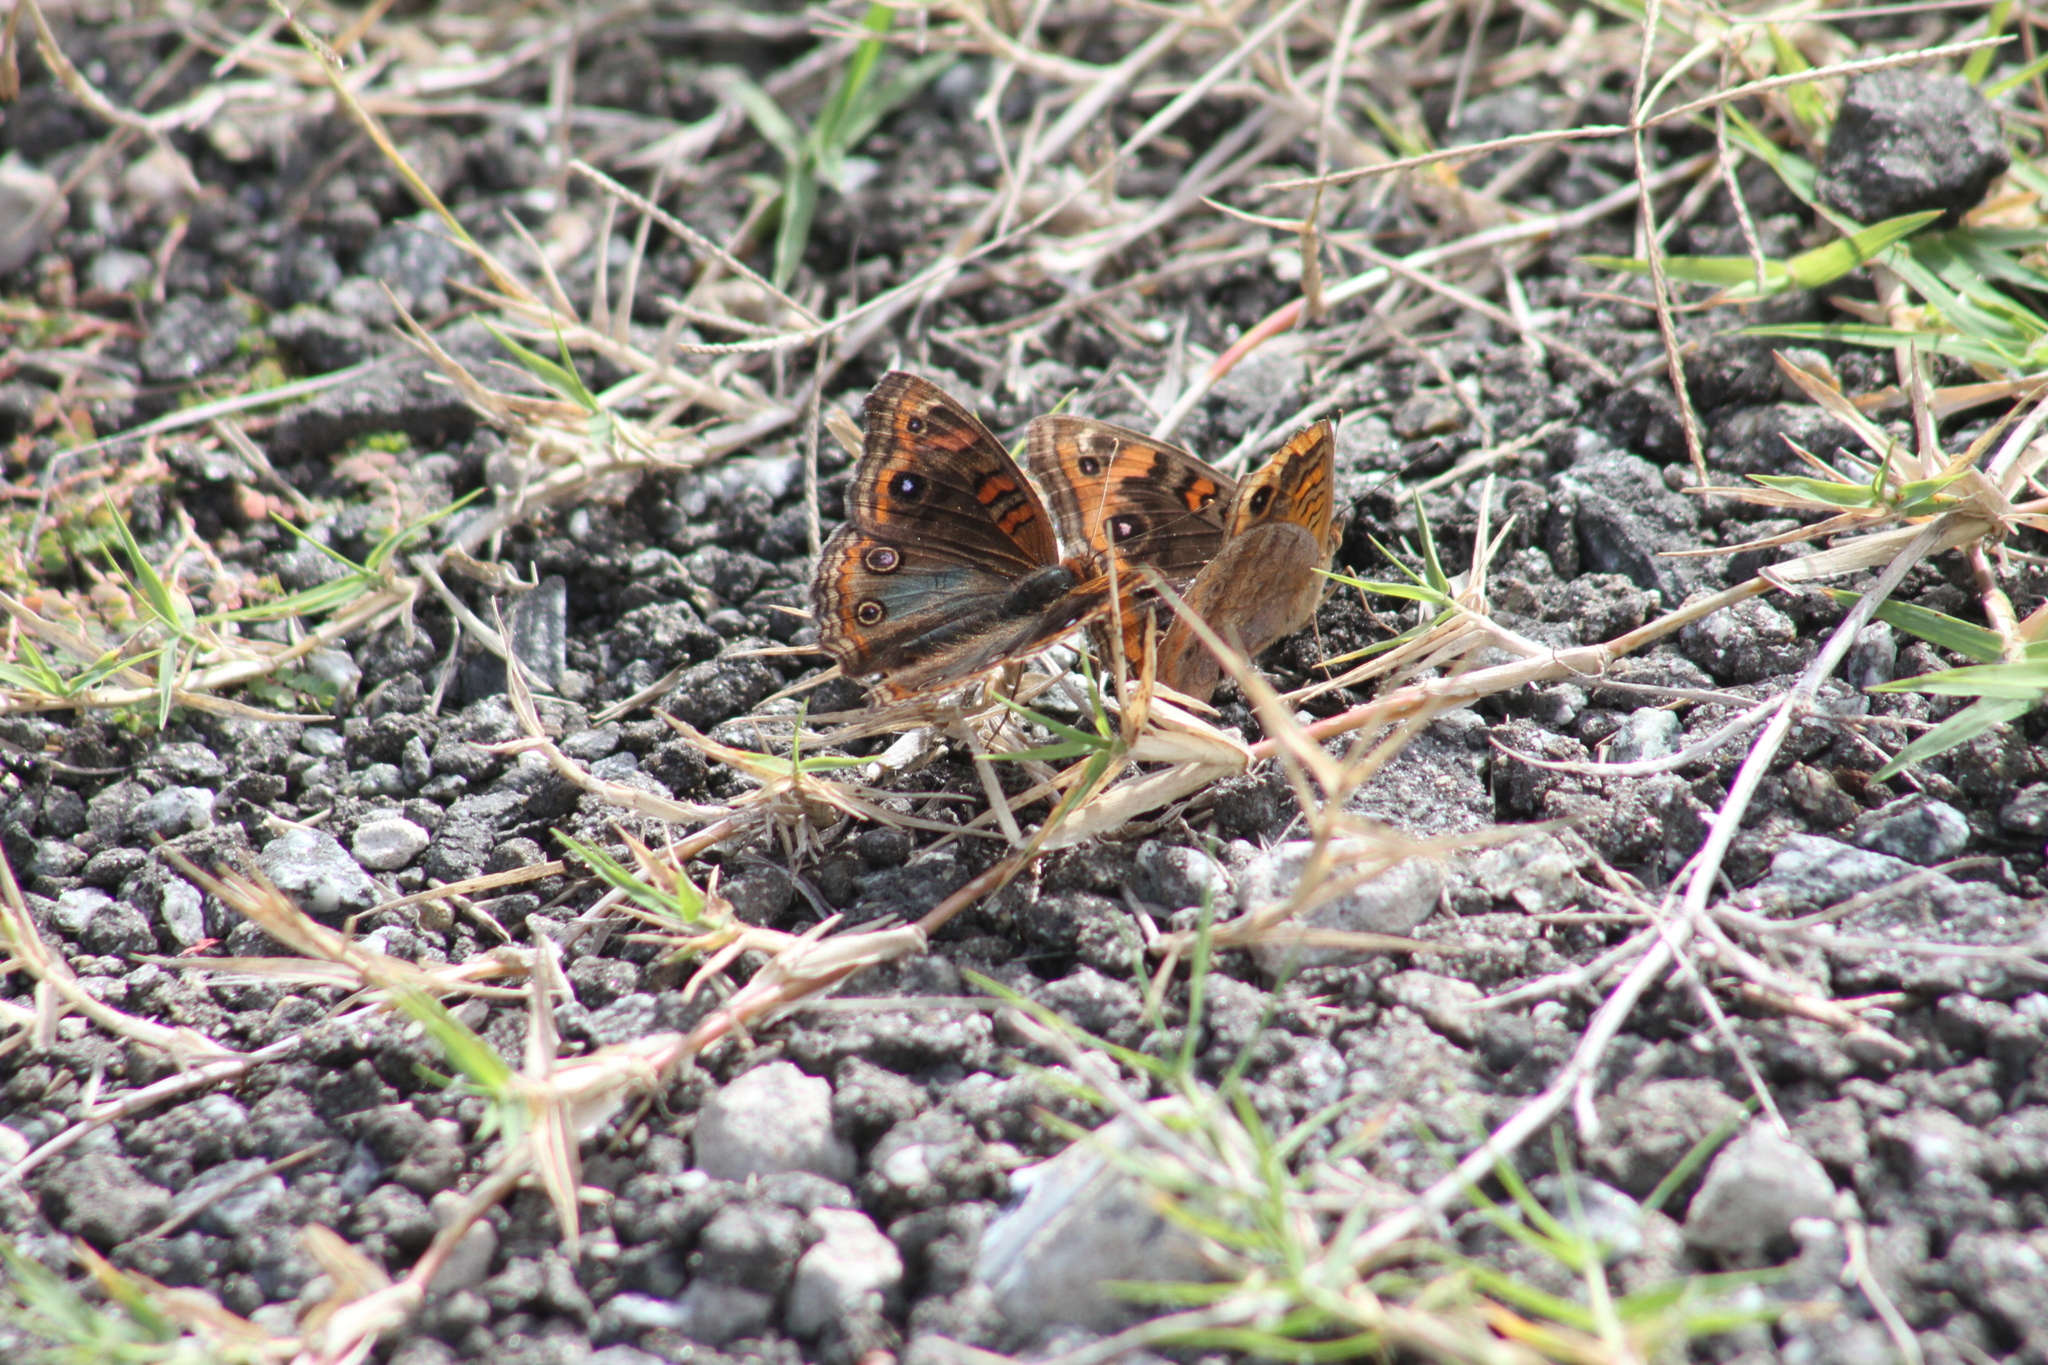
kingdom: Animalia
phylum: Arthropoda
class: Insecta
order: Lepidoptera
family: Nymphalidae
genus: Junonia
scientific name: Junonia lavinia
